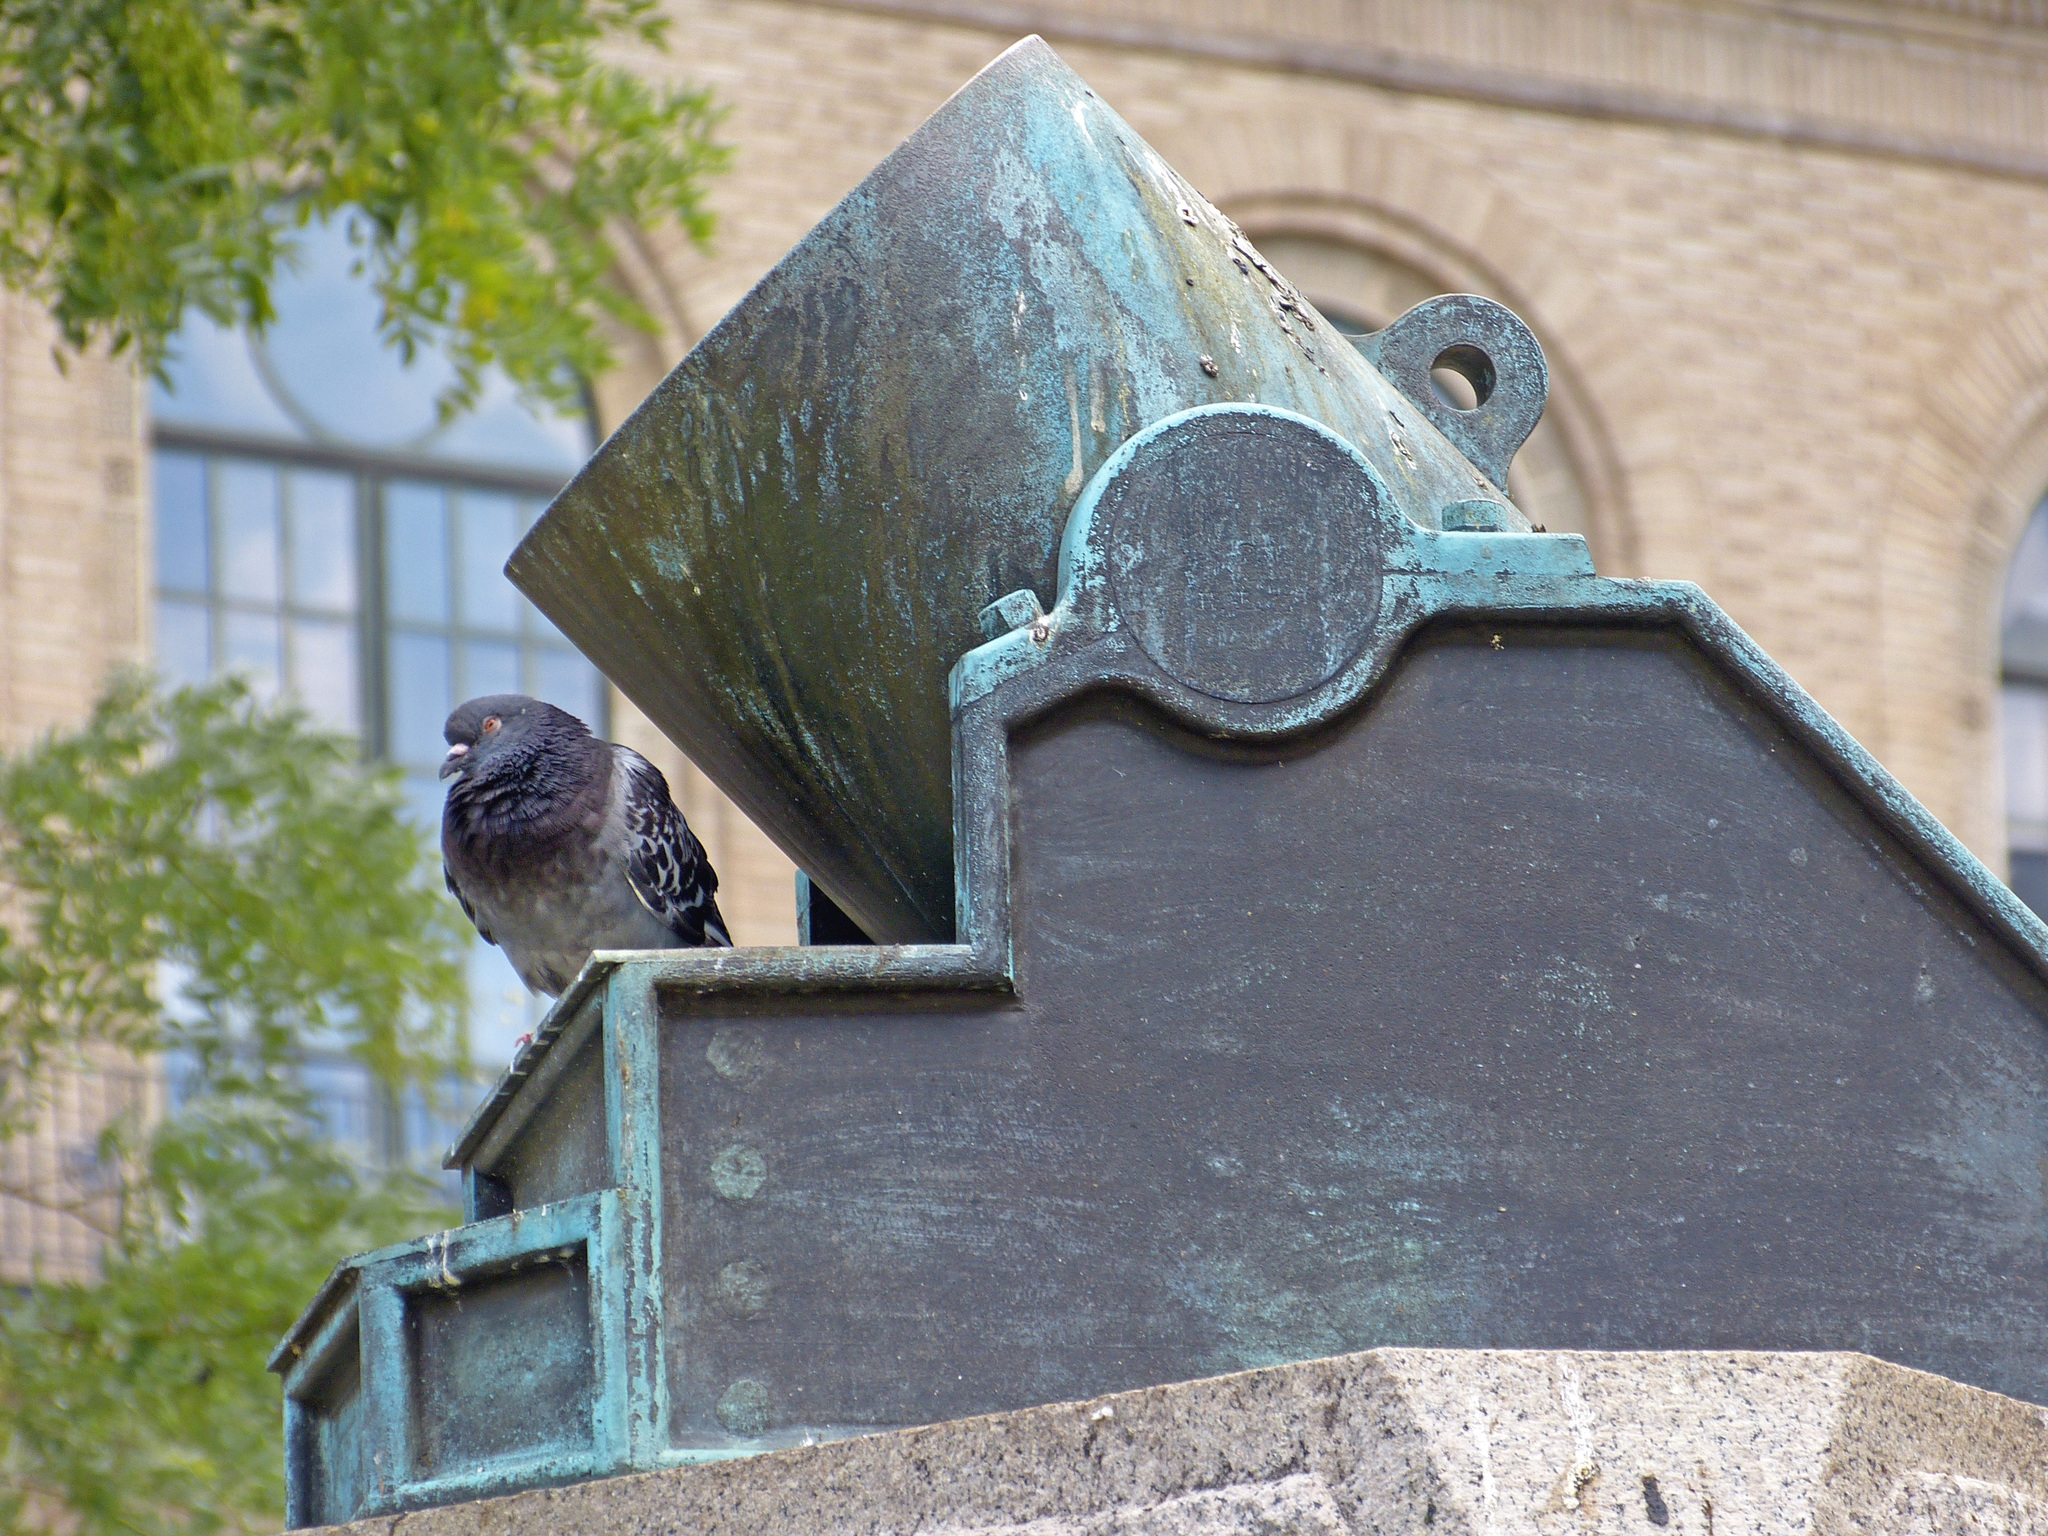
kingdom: Animalia
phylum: Chordata
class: Aves
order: Columbiformes
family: Columbidae
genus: Columba
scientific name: Columba livia
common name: Rock pigeon
